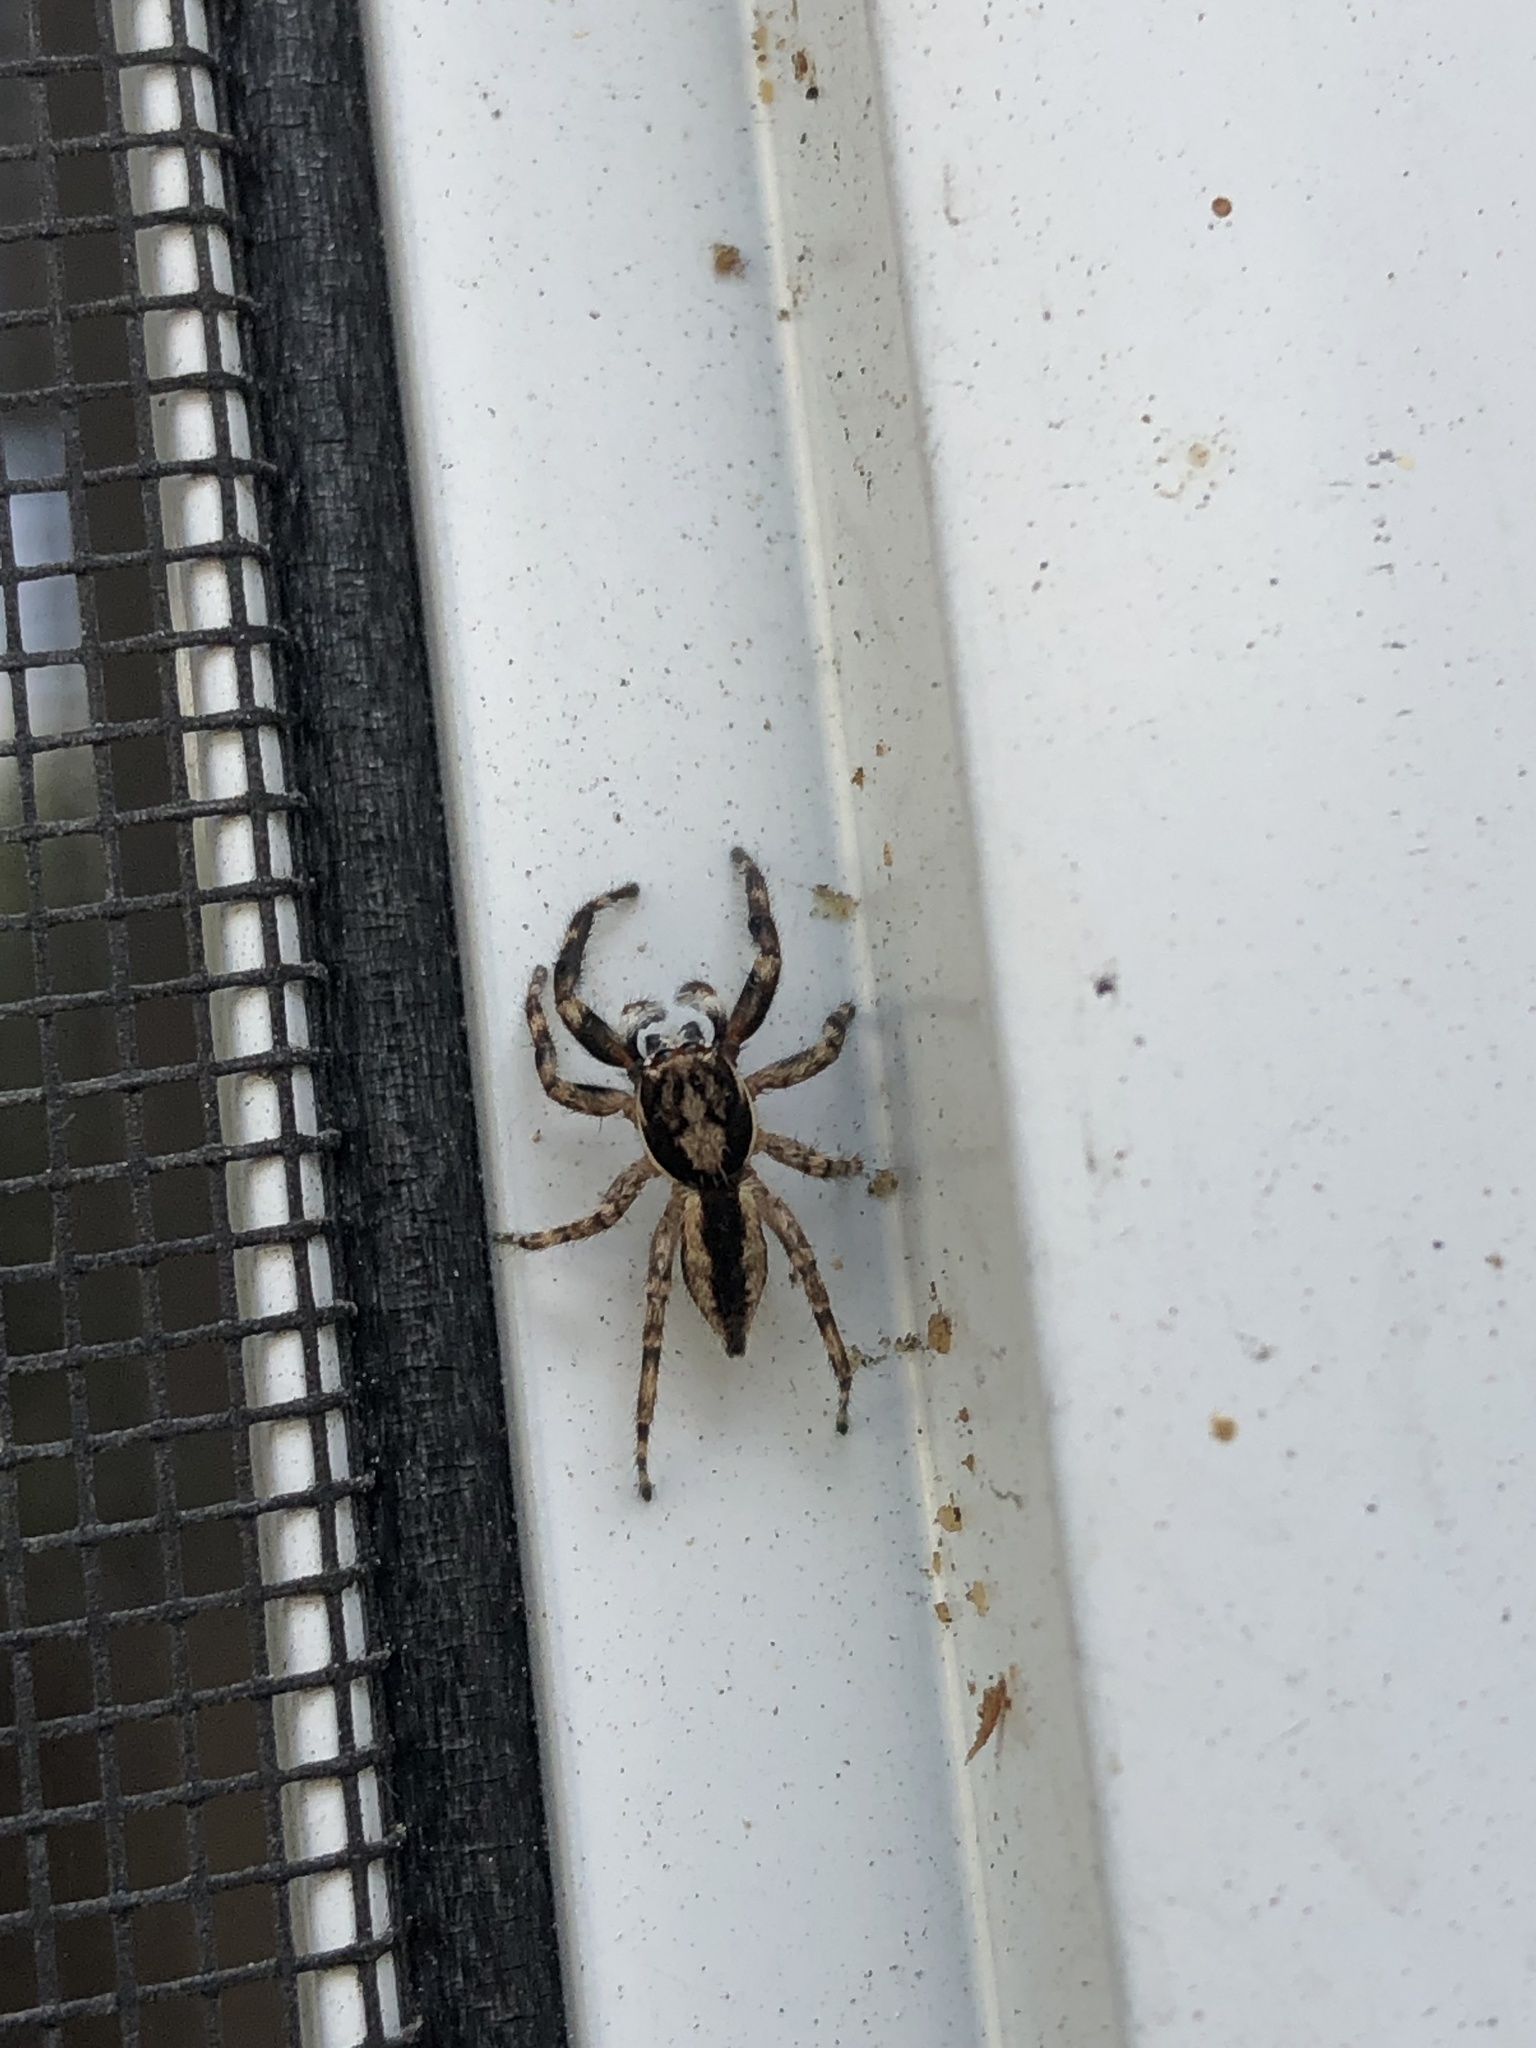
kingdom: Animalia
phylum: Arthropoda
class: Arachnida
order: Araneae
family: Salticidae
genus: Menemerus
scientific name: Menemerus bivittatus
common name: Gray wall jumper
